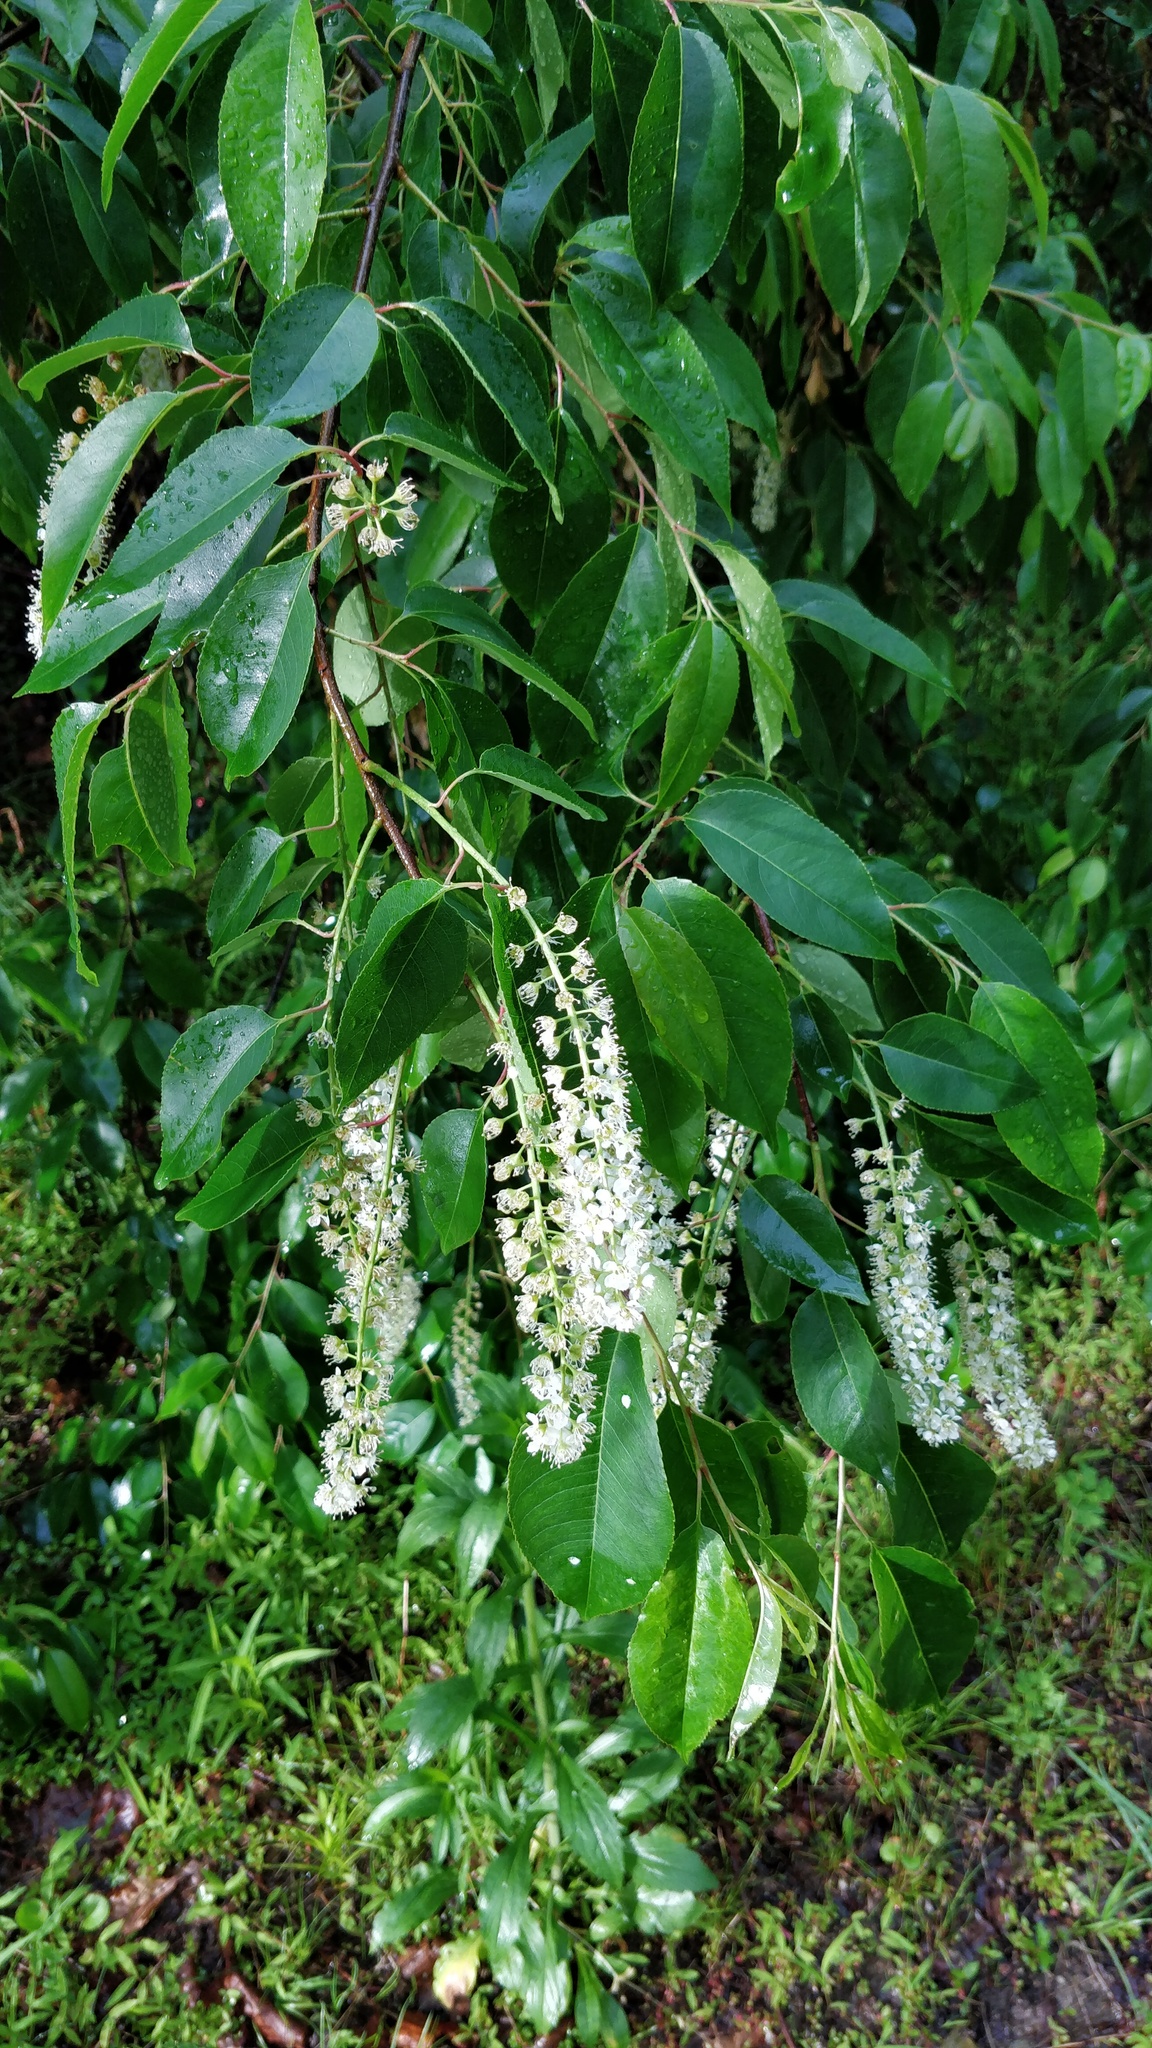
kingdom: Plantae
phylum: Tracheophyta
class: Magnoliopsida
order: Rosales
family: Rosaceae
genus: Prunus
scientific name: Prunus serotina
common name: Black cherry
